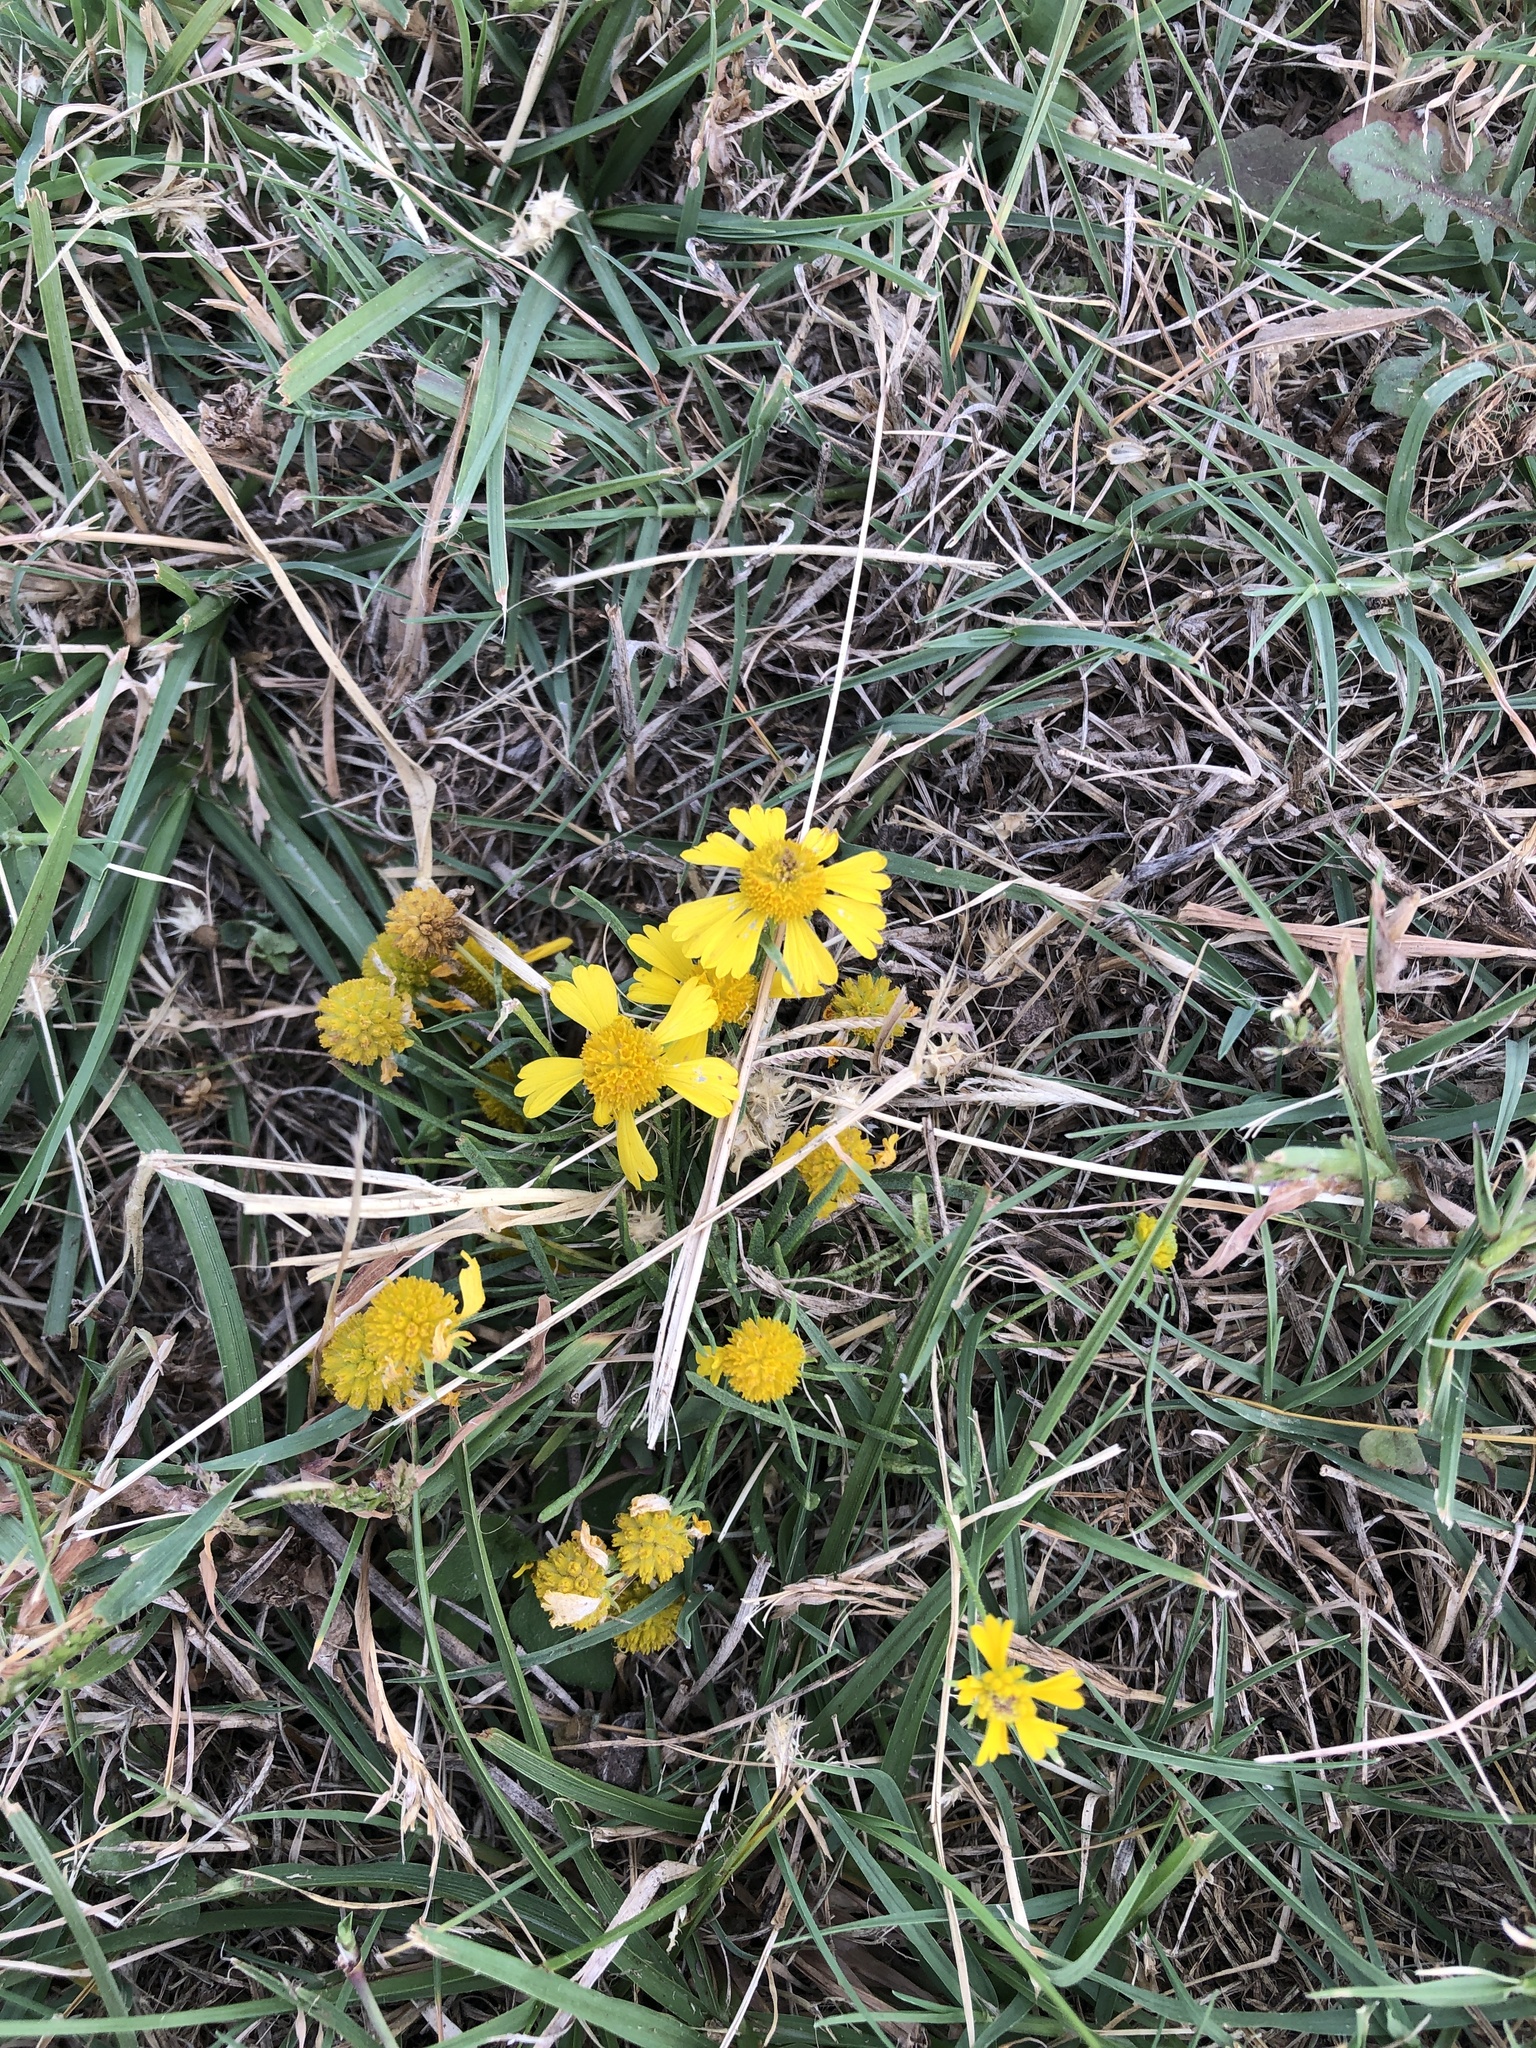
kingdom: Plantae
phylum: Tracheophyta
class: Magnoliopsida
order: Asterales
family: Asteraceae
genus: Helenium
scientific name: Helenium amarum
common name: Bitter sneezeweed
